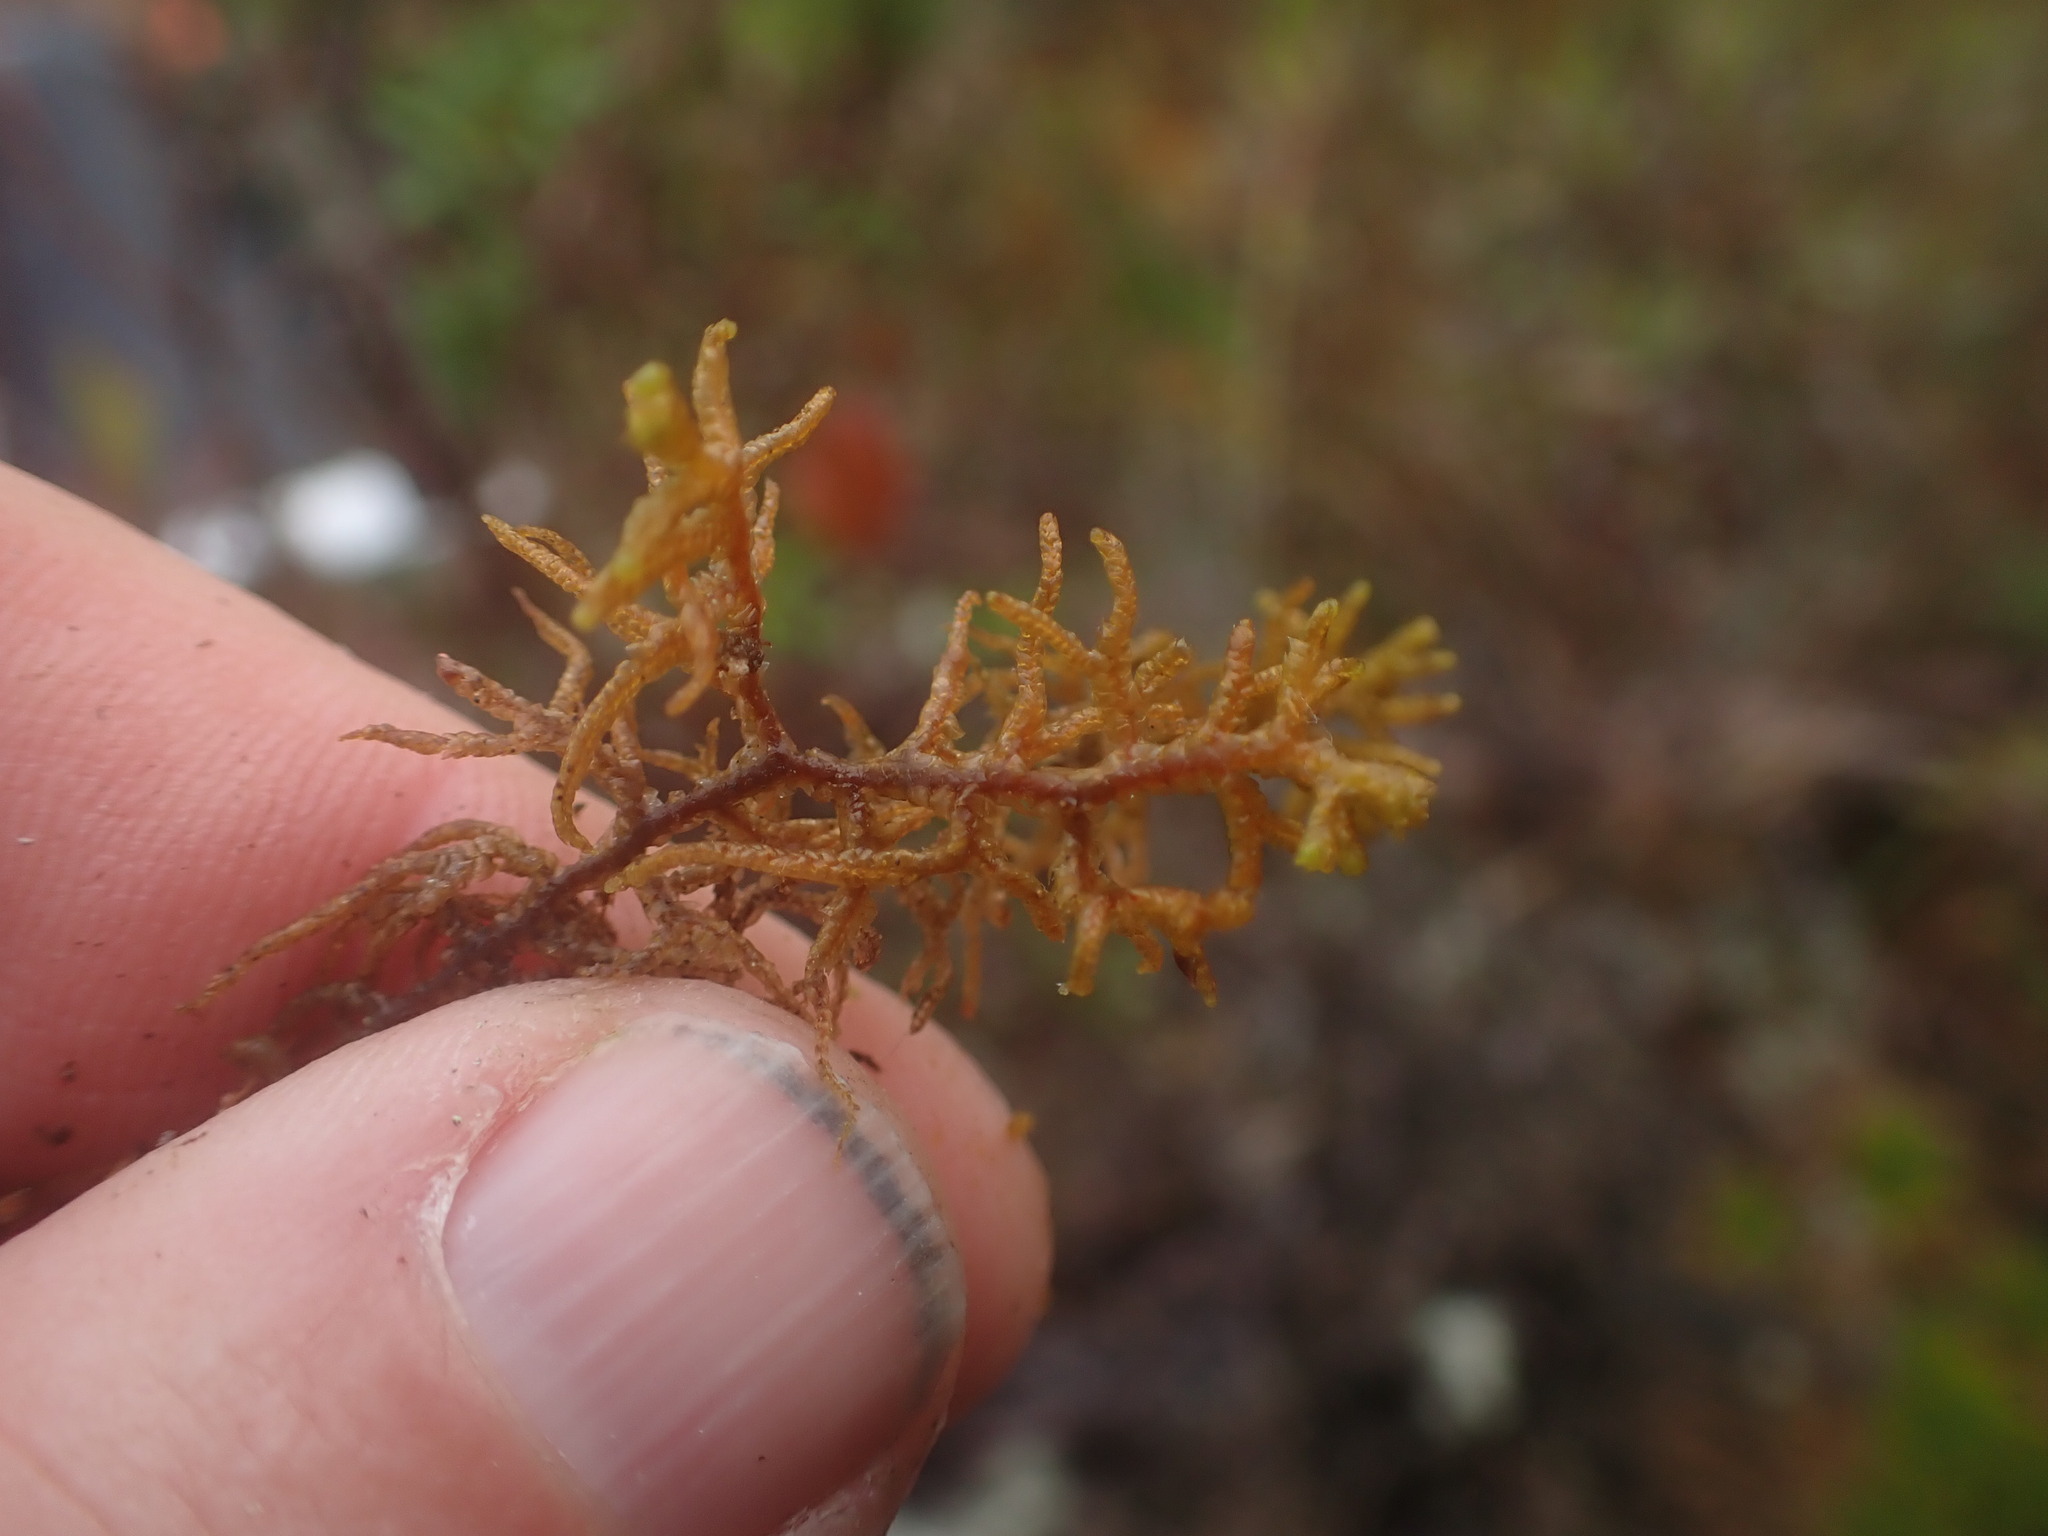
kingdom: Plantae
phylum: Marchantiophyta
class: Jungermanniopsida
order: Jungermanniales
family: Mastigophoraceae
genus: Mastigophora
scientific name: Mastigophora woodsii
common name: Wood's whipwort
